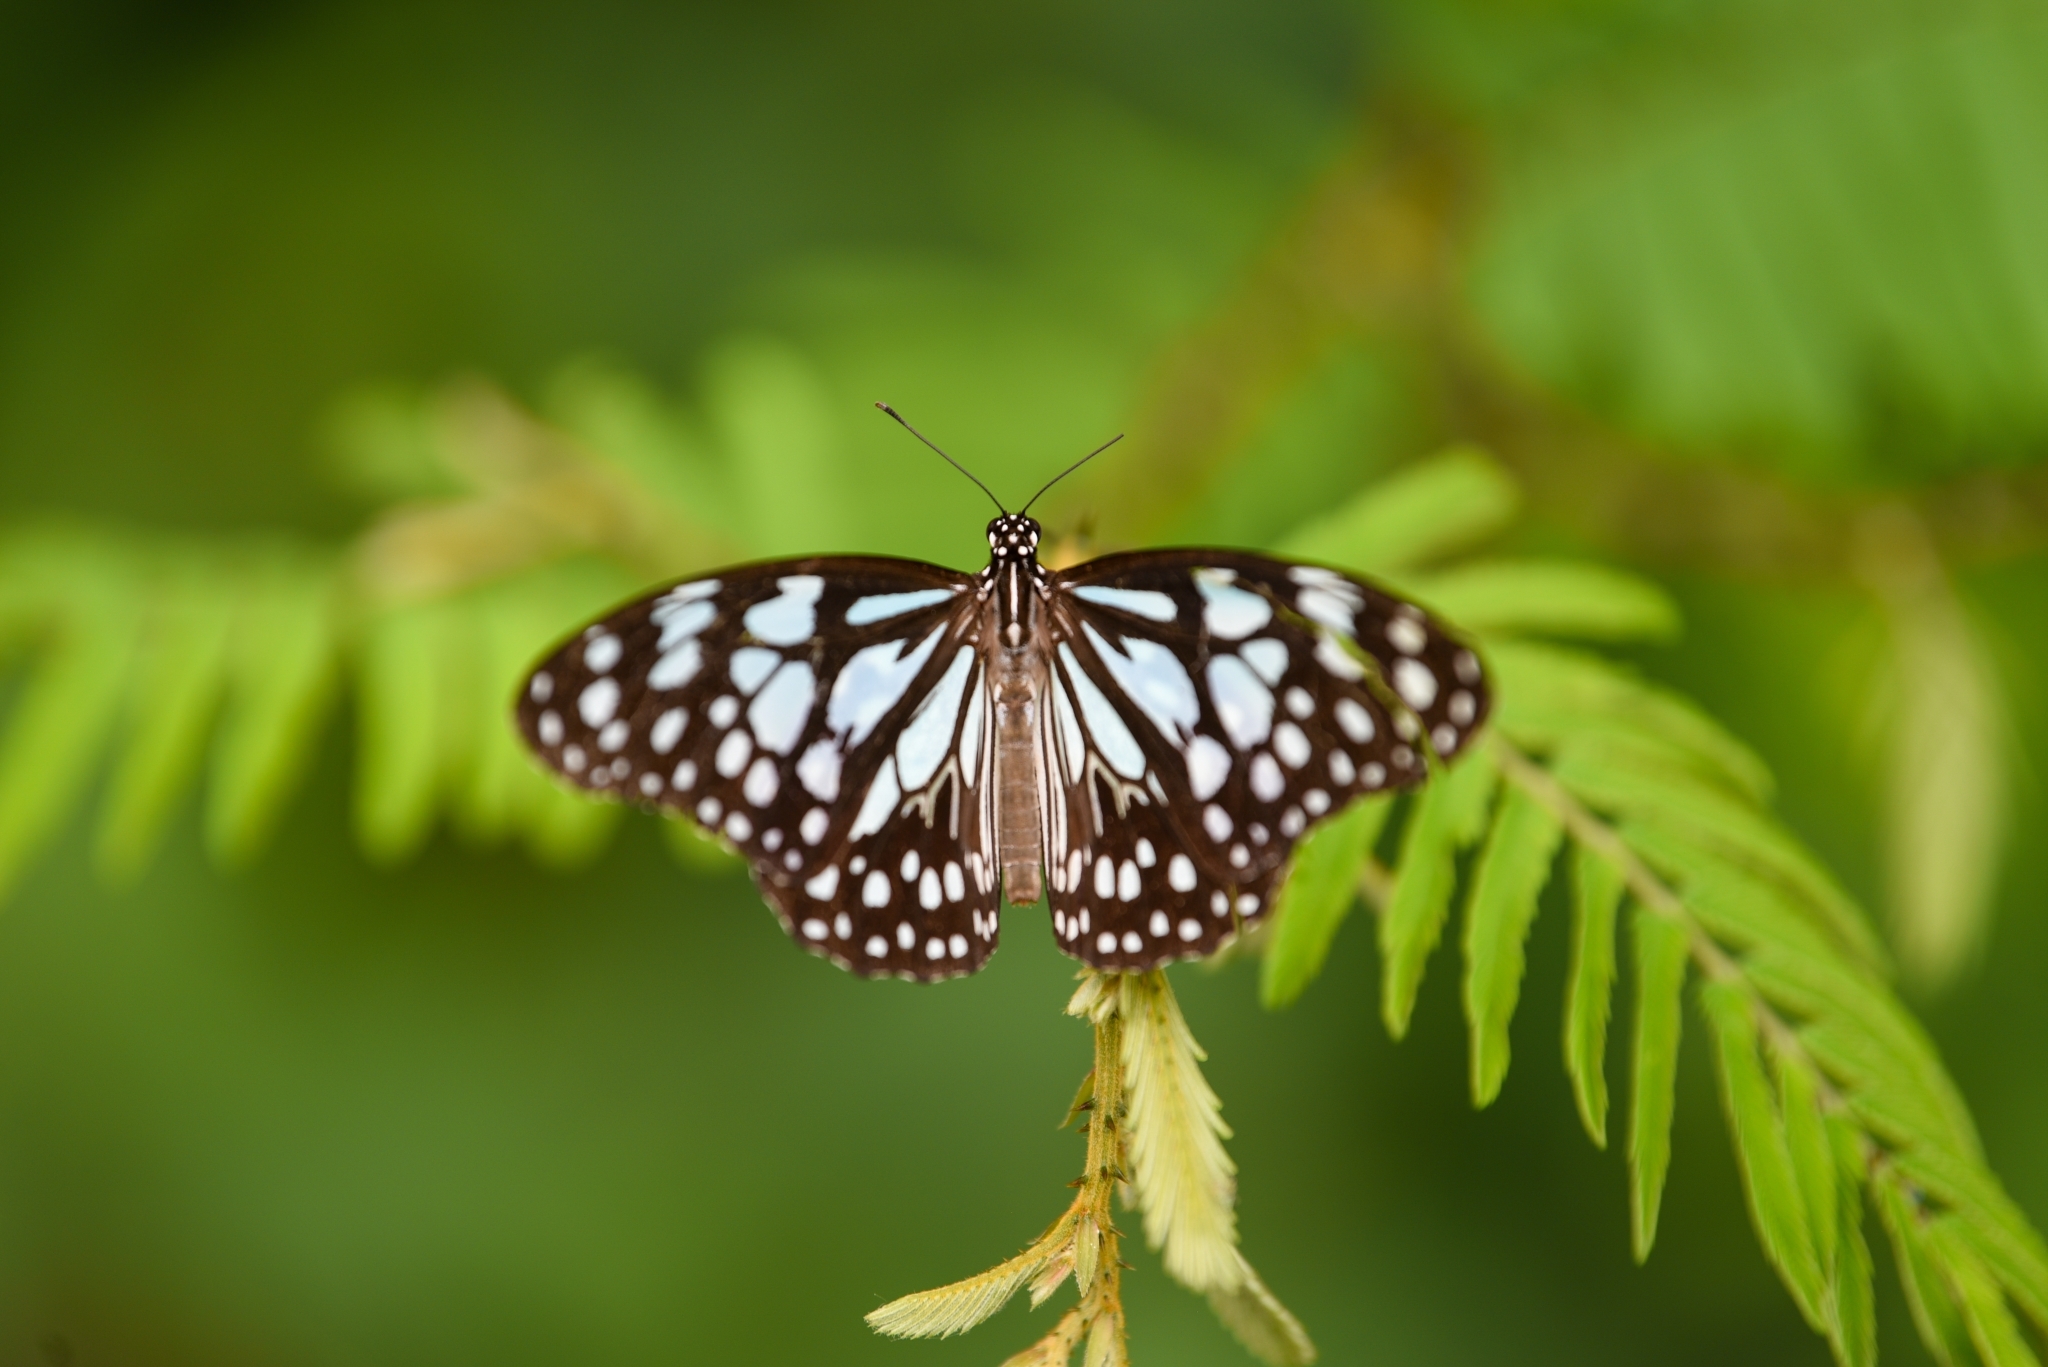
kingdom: Animalia
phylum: Arthropoda
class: Insecta
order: Lepidoptera
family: Nymphalidae
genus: Tirumala
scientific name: Tirumala limniace
